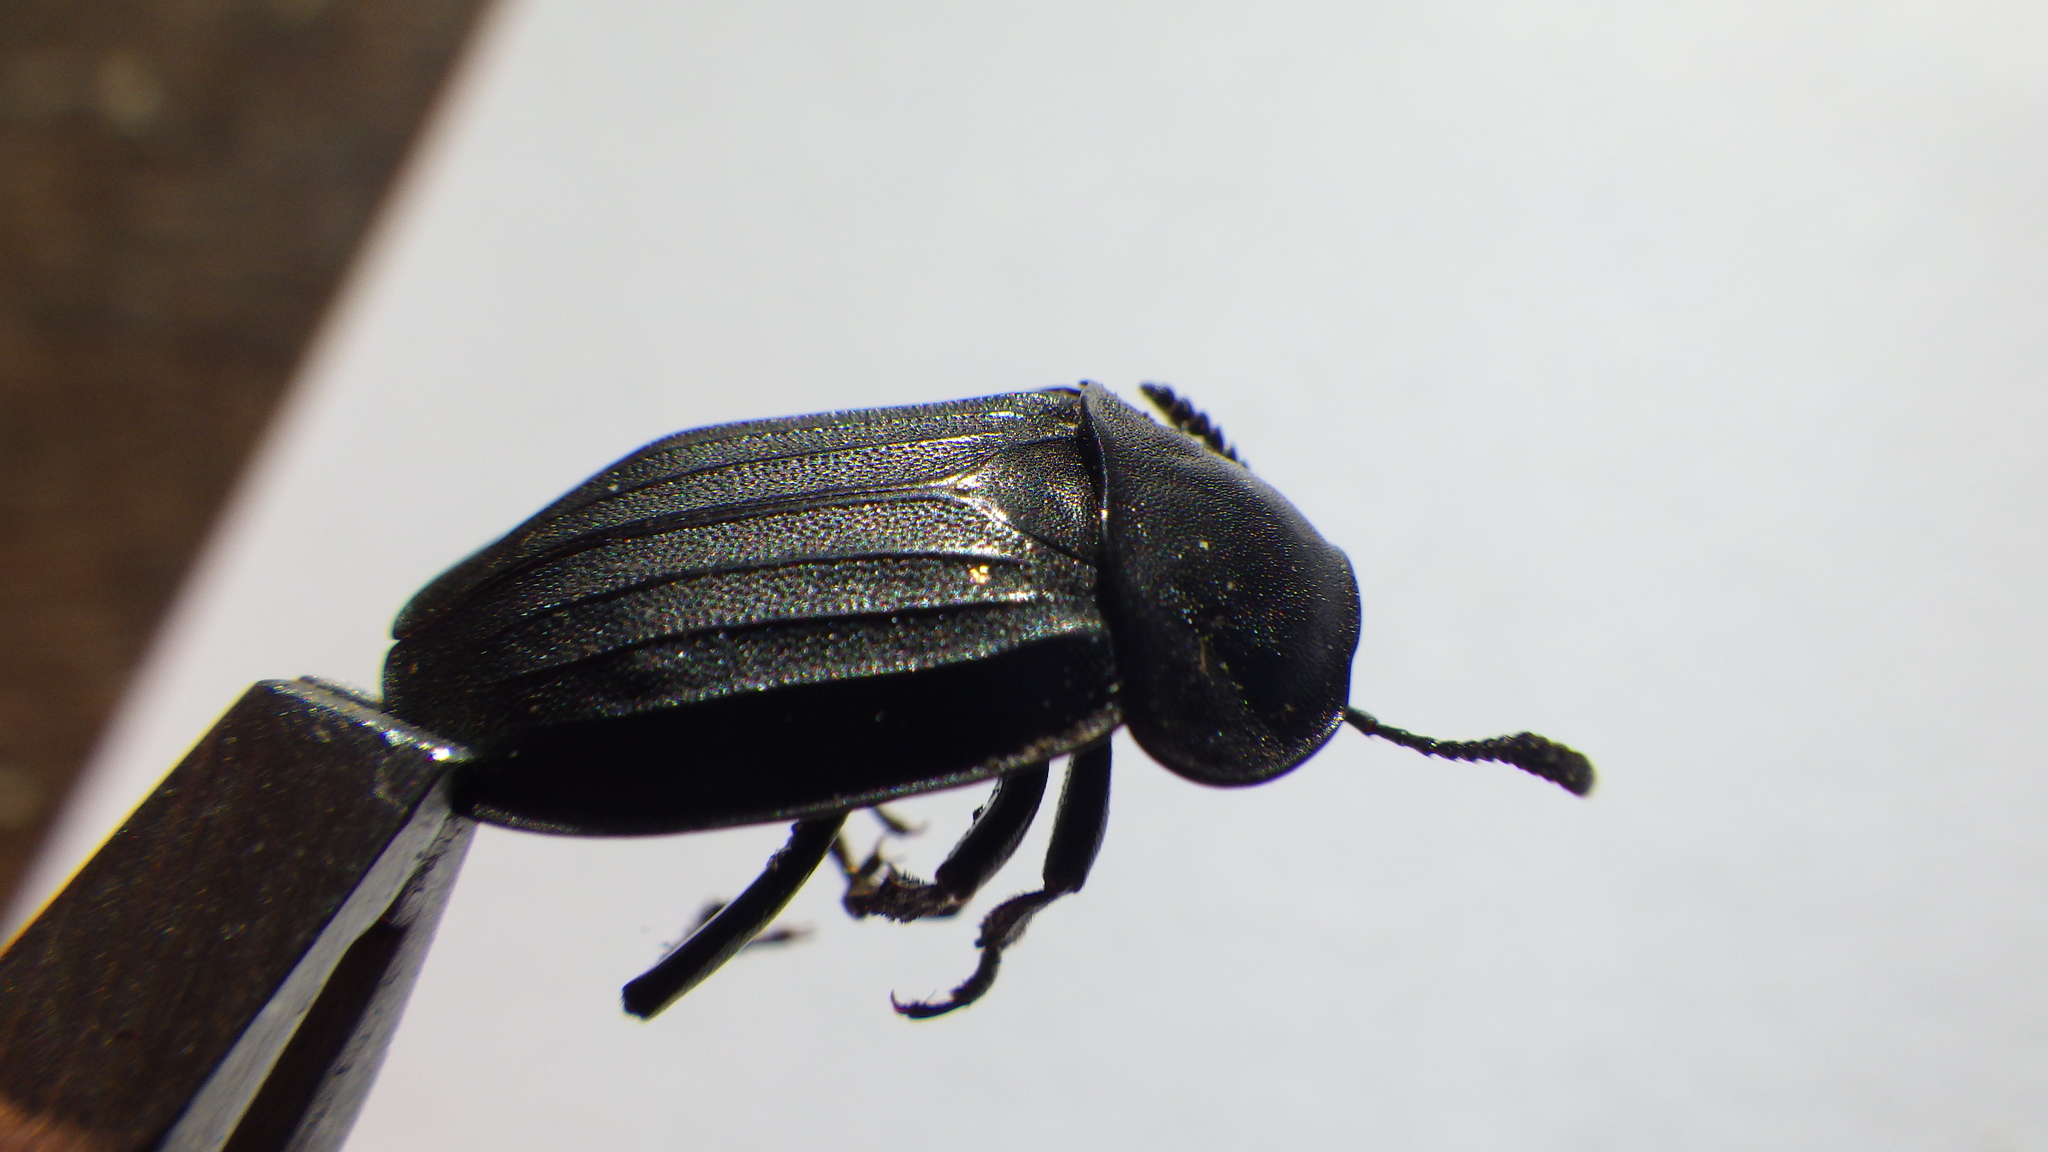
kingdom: Animalia
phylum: Arthropoda
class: Insecta
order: Coleoptera
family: Staphylinidae
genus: Silpha
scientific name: Silpha tristis
